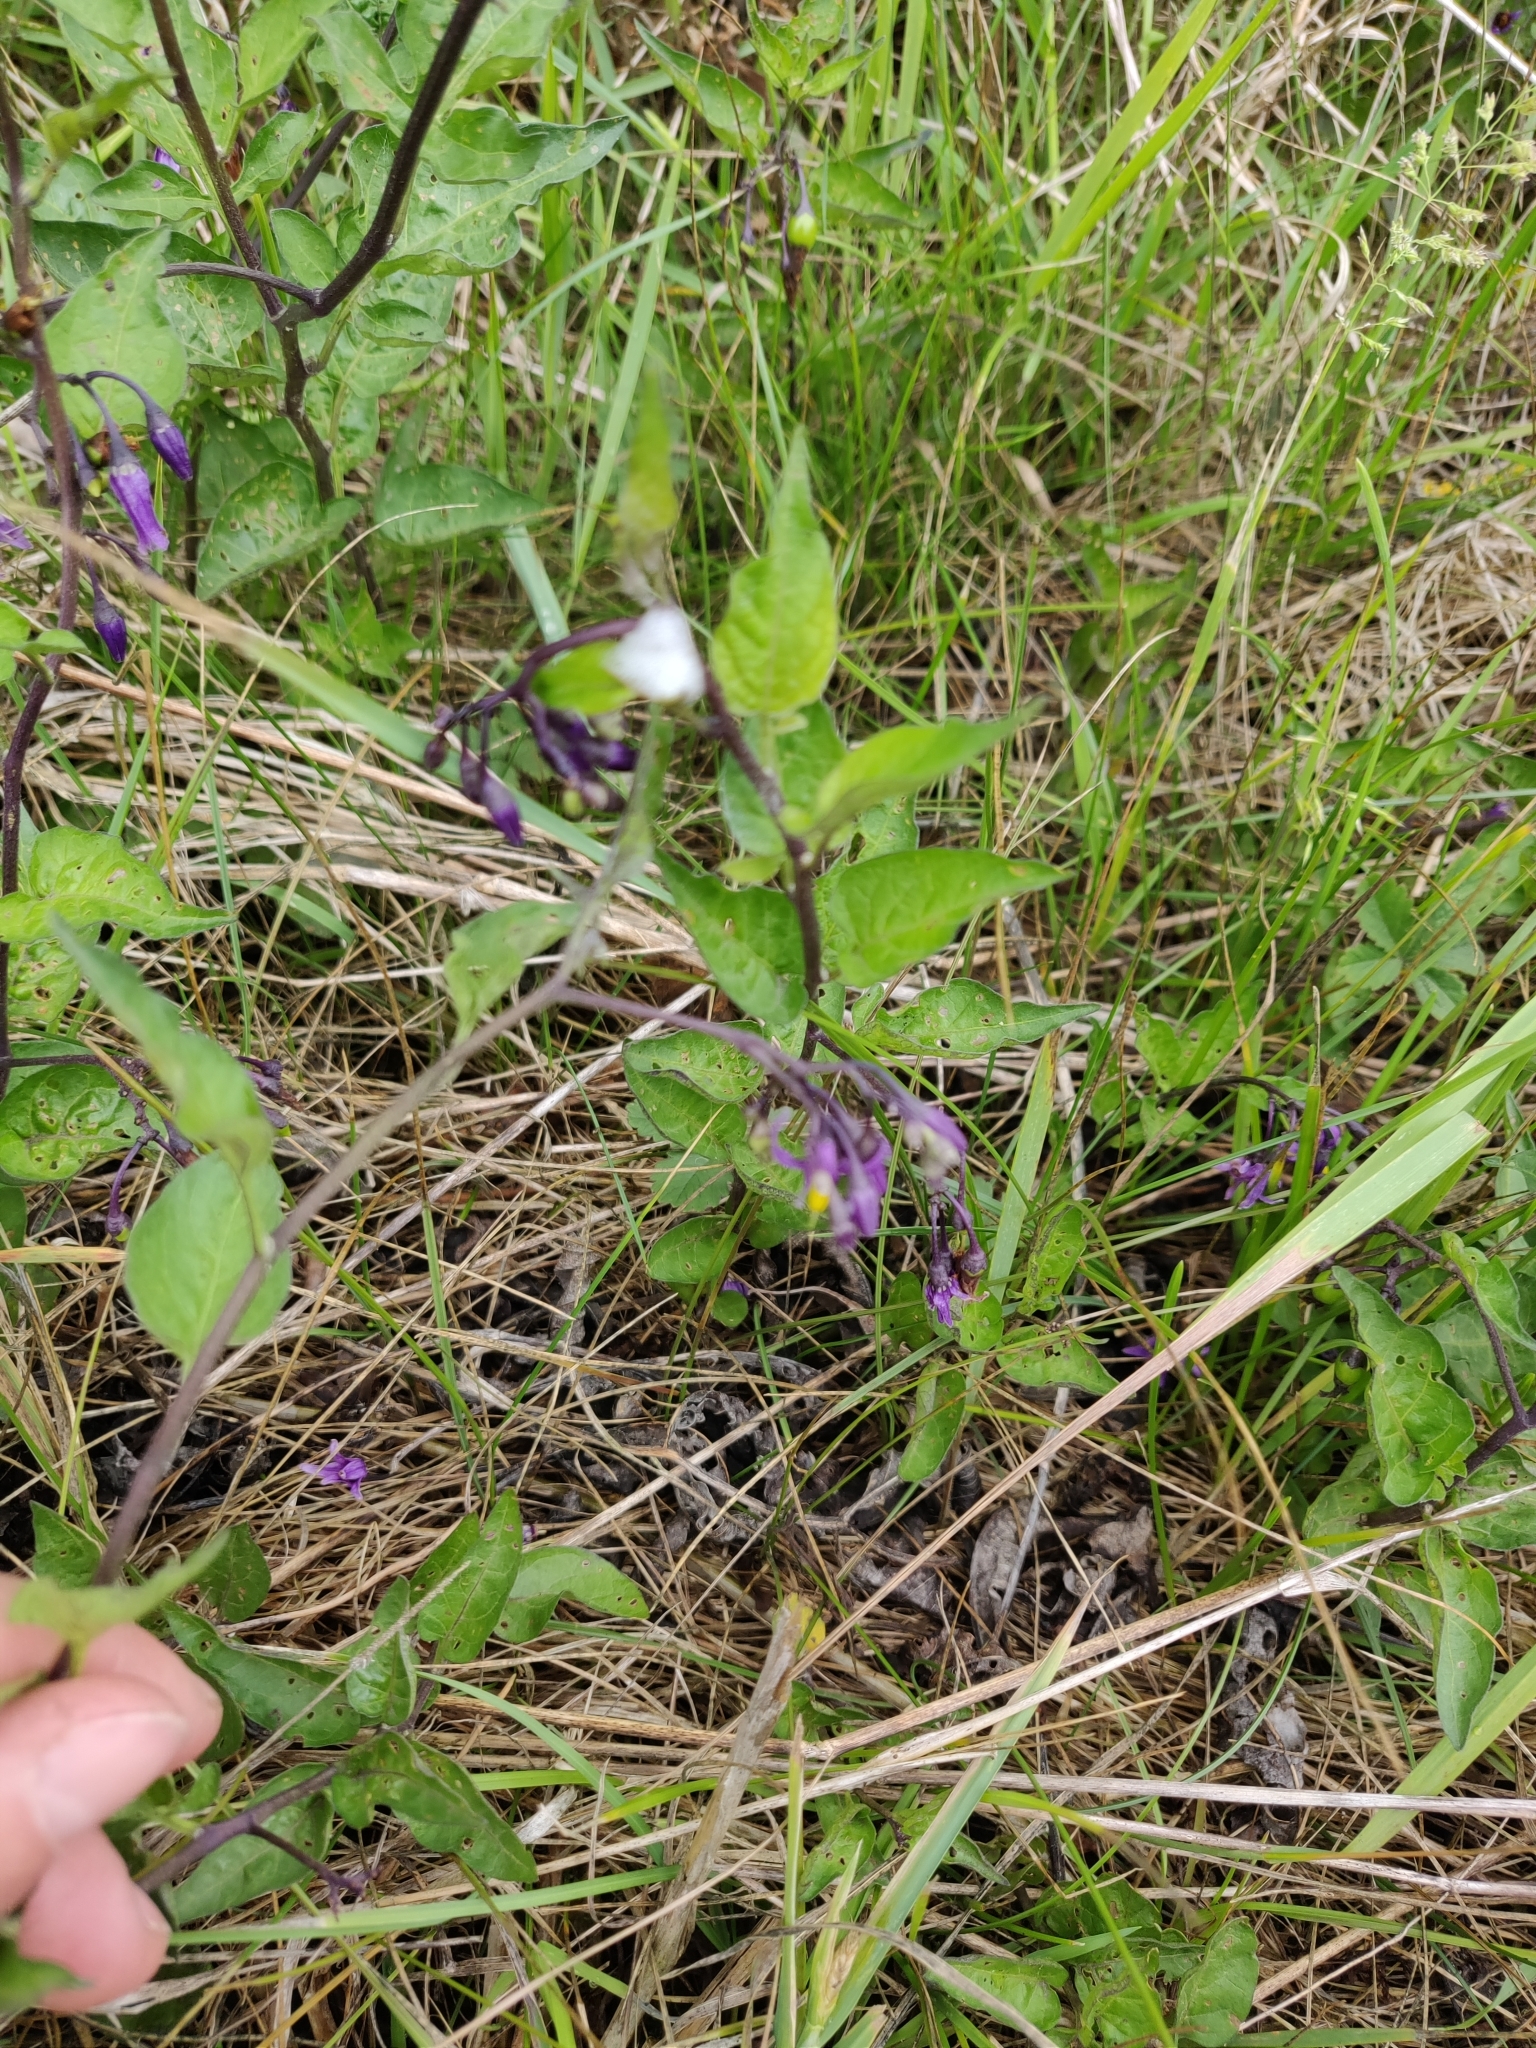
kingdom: Plantae
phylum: Tracheophyta
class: Magnoliopsida
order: Solanales
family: Solanaceae
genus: Solanum
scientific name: Solanum dulcamara
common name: Climbing nightshade
